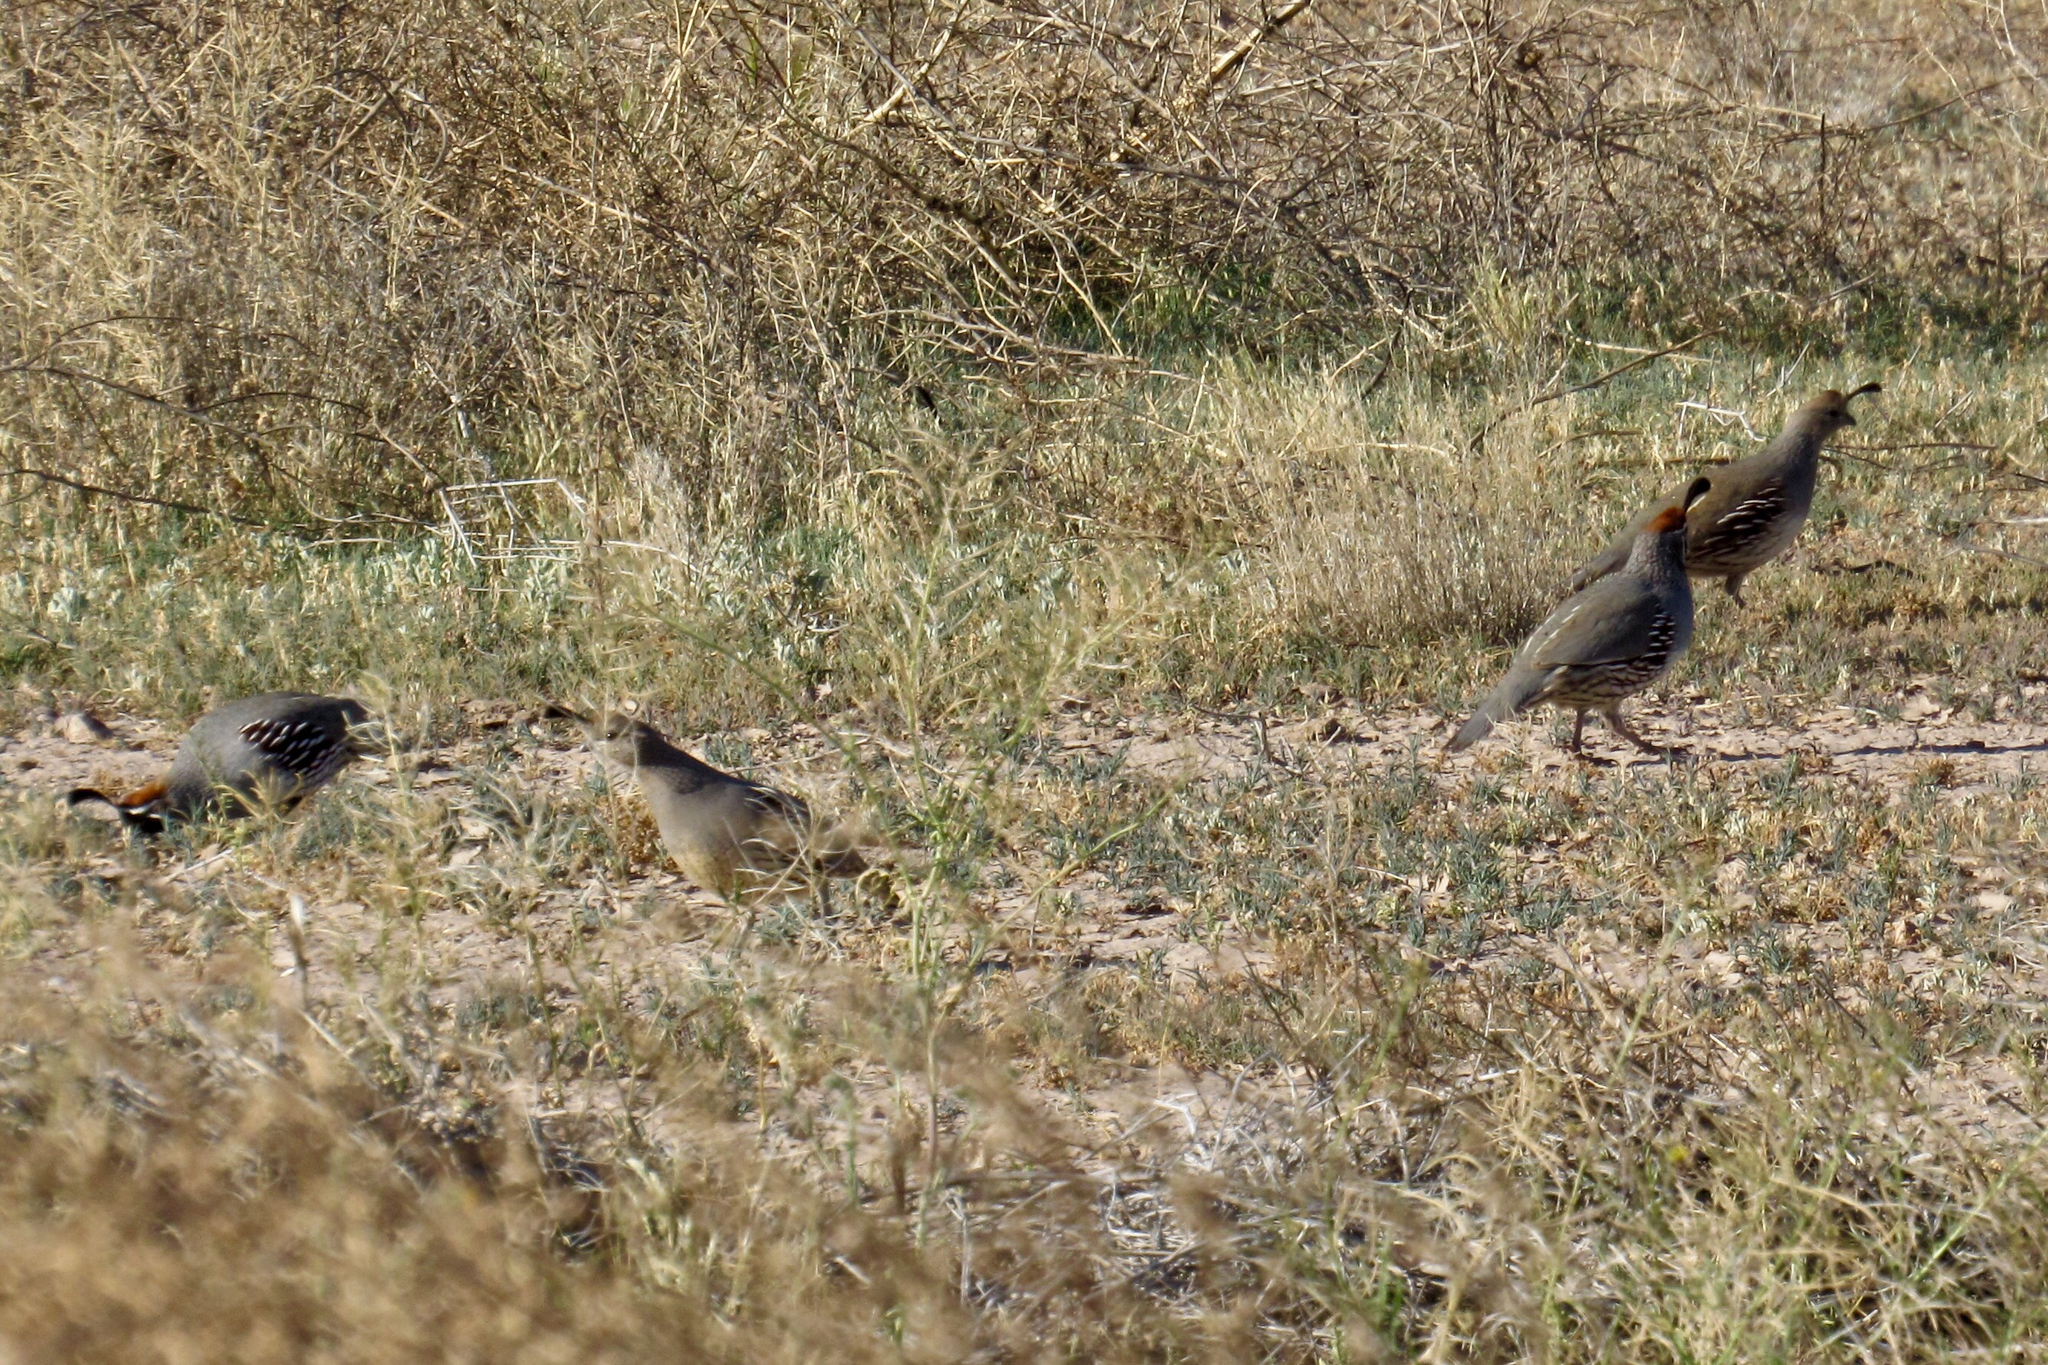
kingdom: Animalia
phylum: Chordata
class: Aves
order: Galliformes
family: Odontophoridae
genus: Callipepla
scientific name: Callipepla gambelii
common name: Gambel's quail
